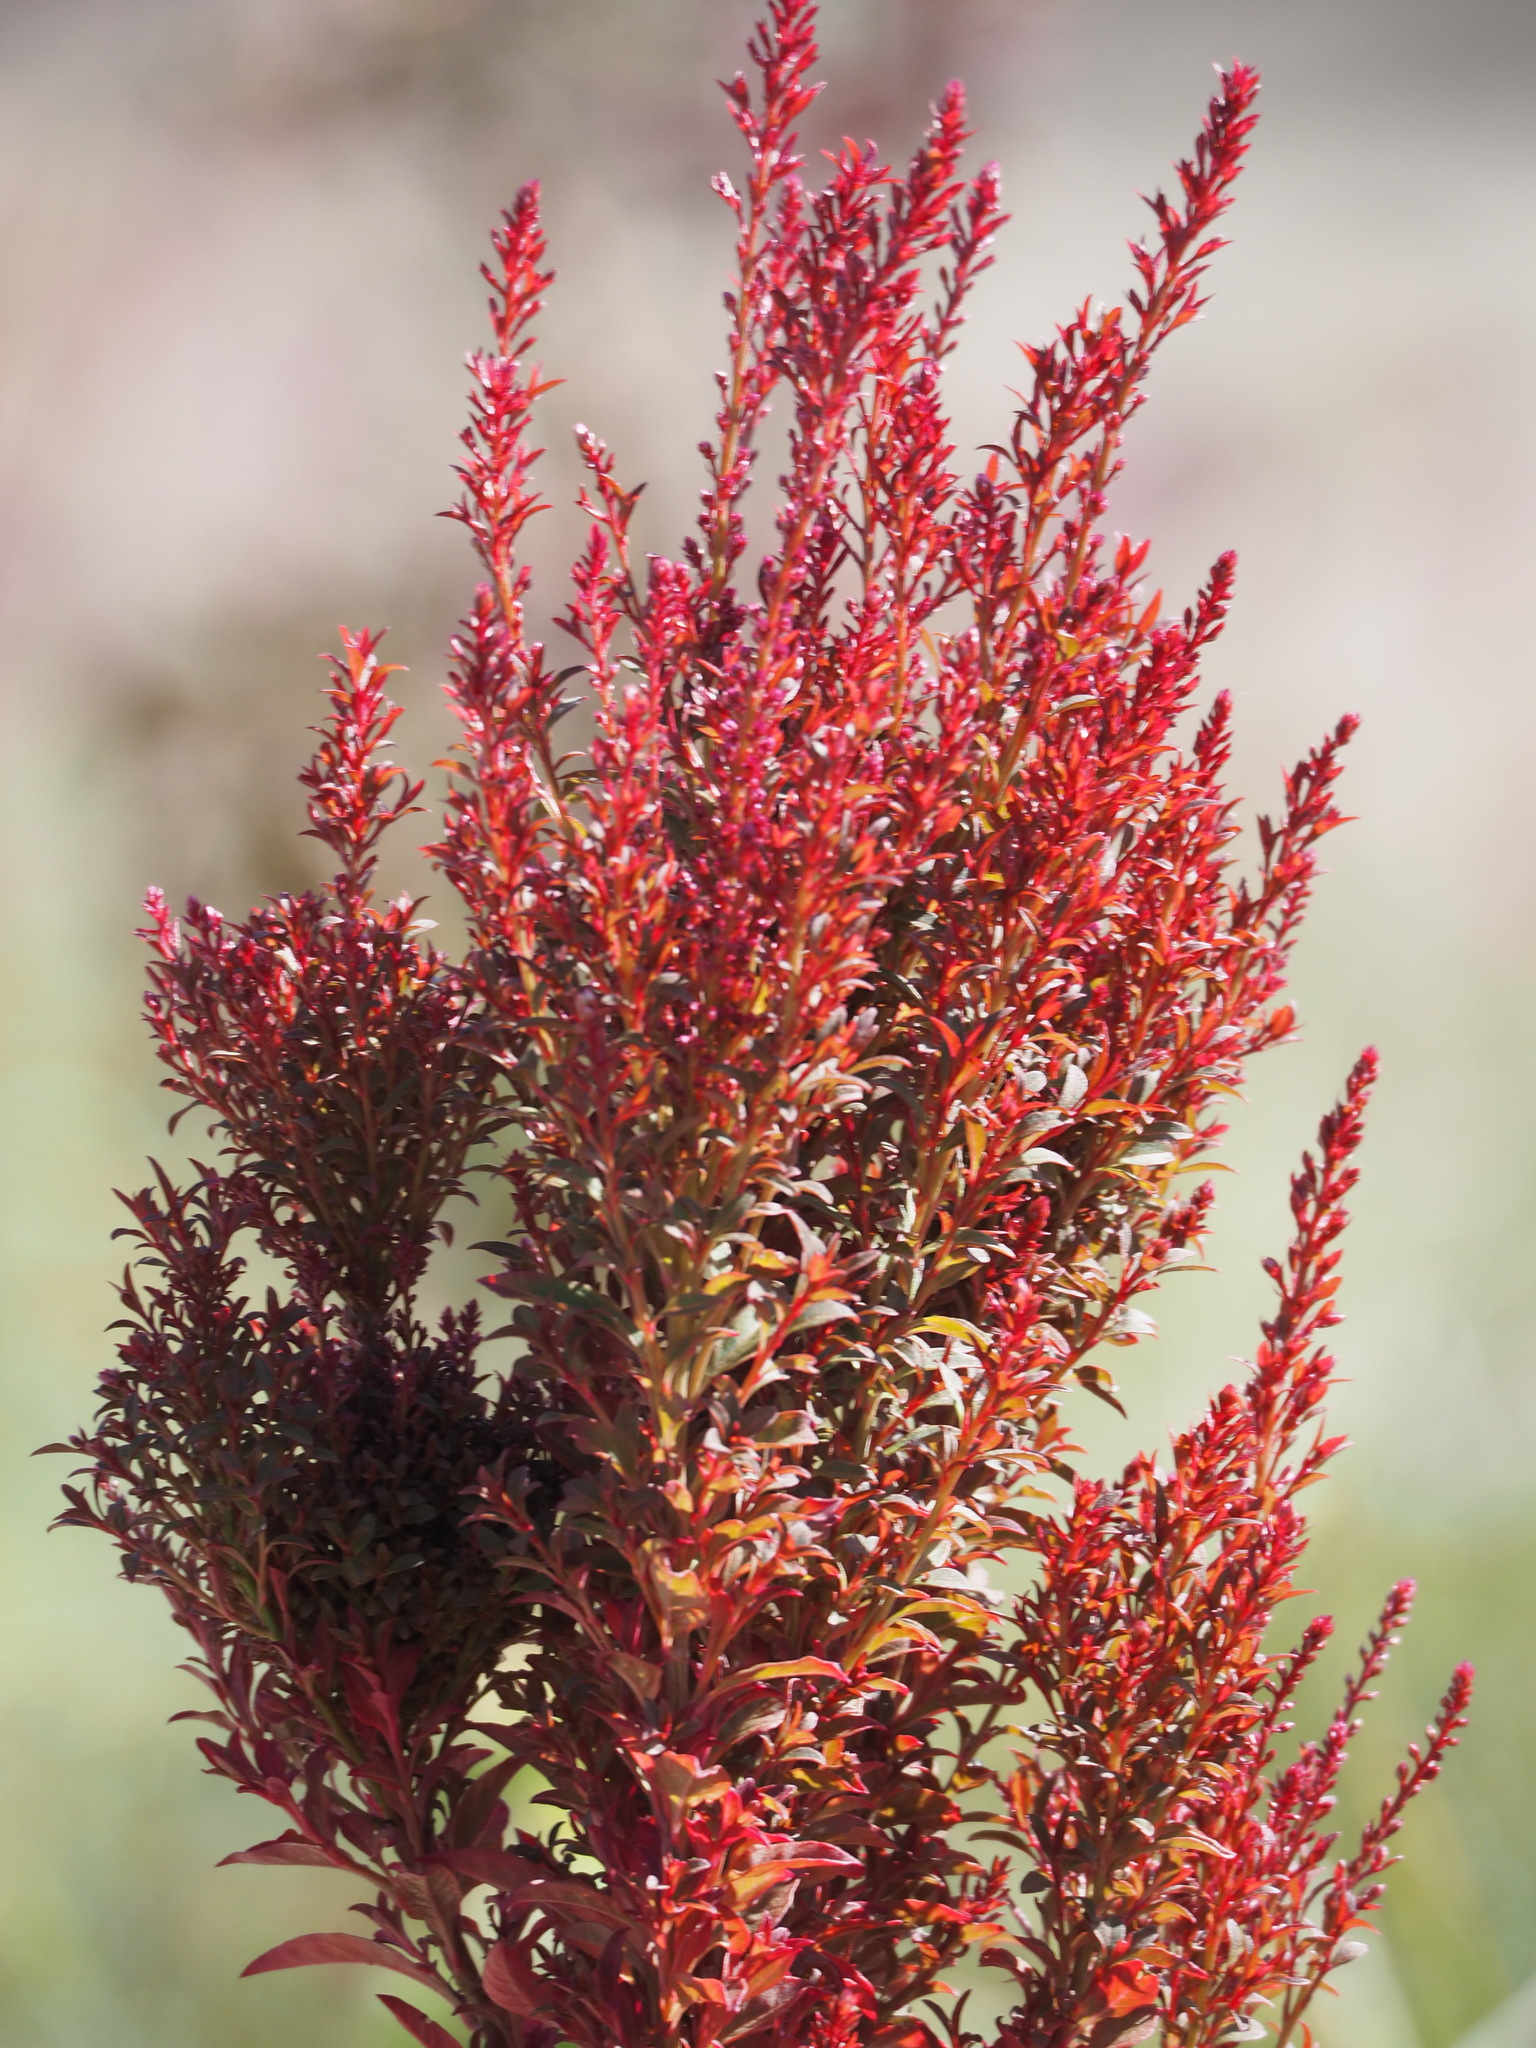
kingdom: Plantae
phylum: Tracheophyta
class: Magnoliopsida
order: Caryophyllales
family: Amaranthaceae
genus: Celosia
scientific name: Celosia argentea
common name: Feather cockscomb
